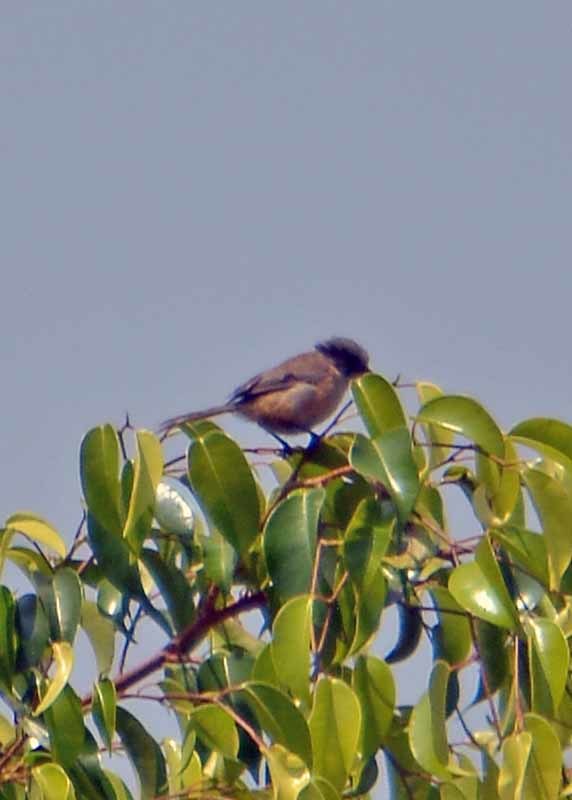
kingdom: Animalia
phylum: Chordata
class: Aves
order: Passeriformes
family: Aegithalidae
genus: Psaltriparus
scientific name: Psaltriparus minimus
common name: American bushtit
